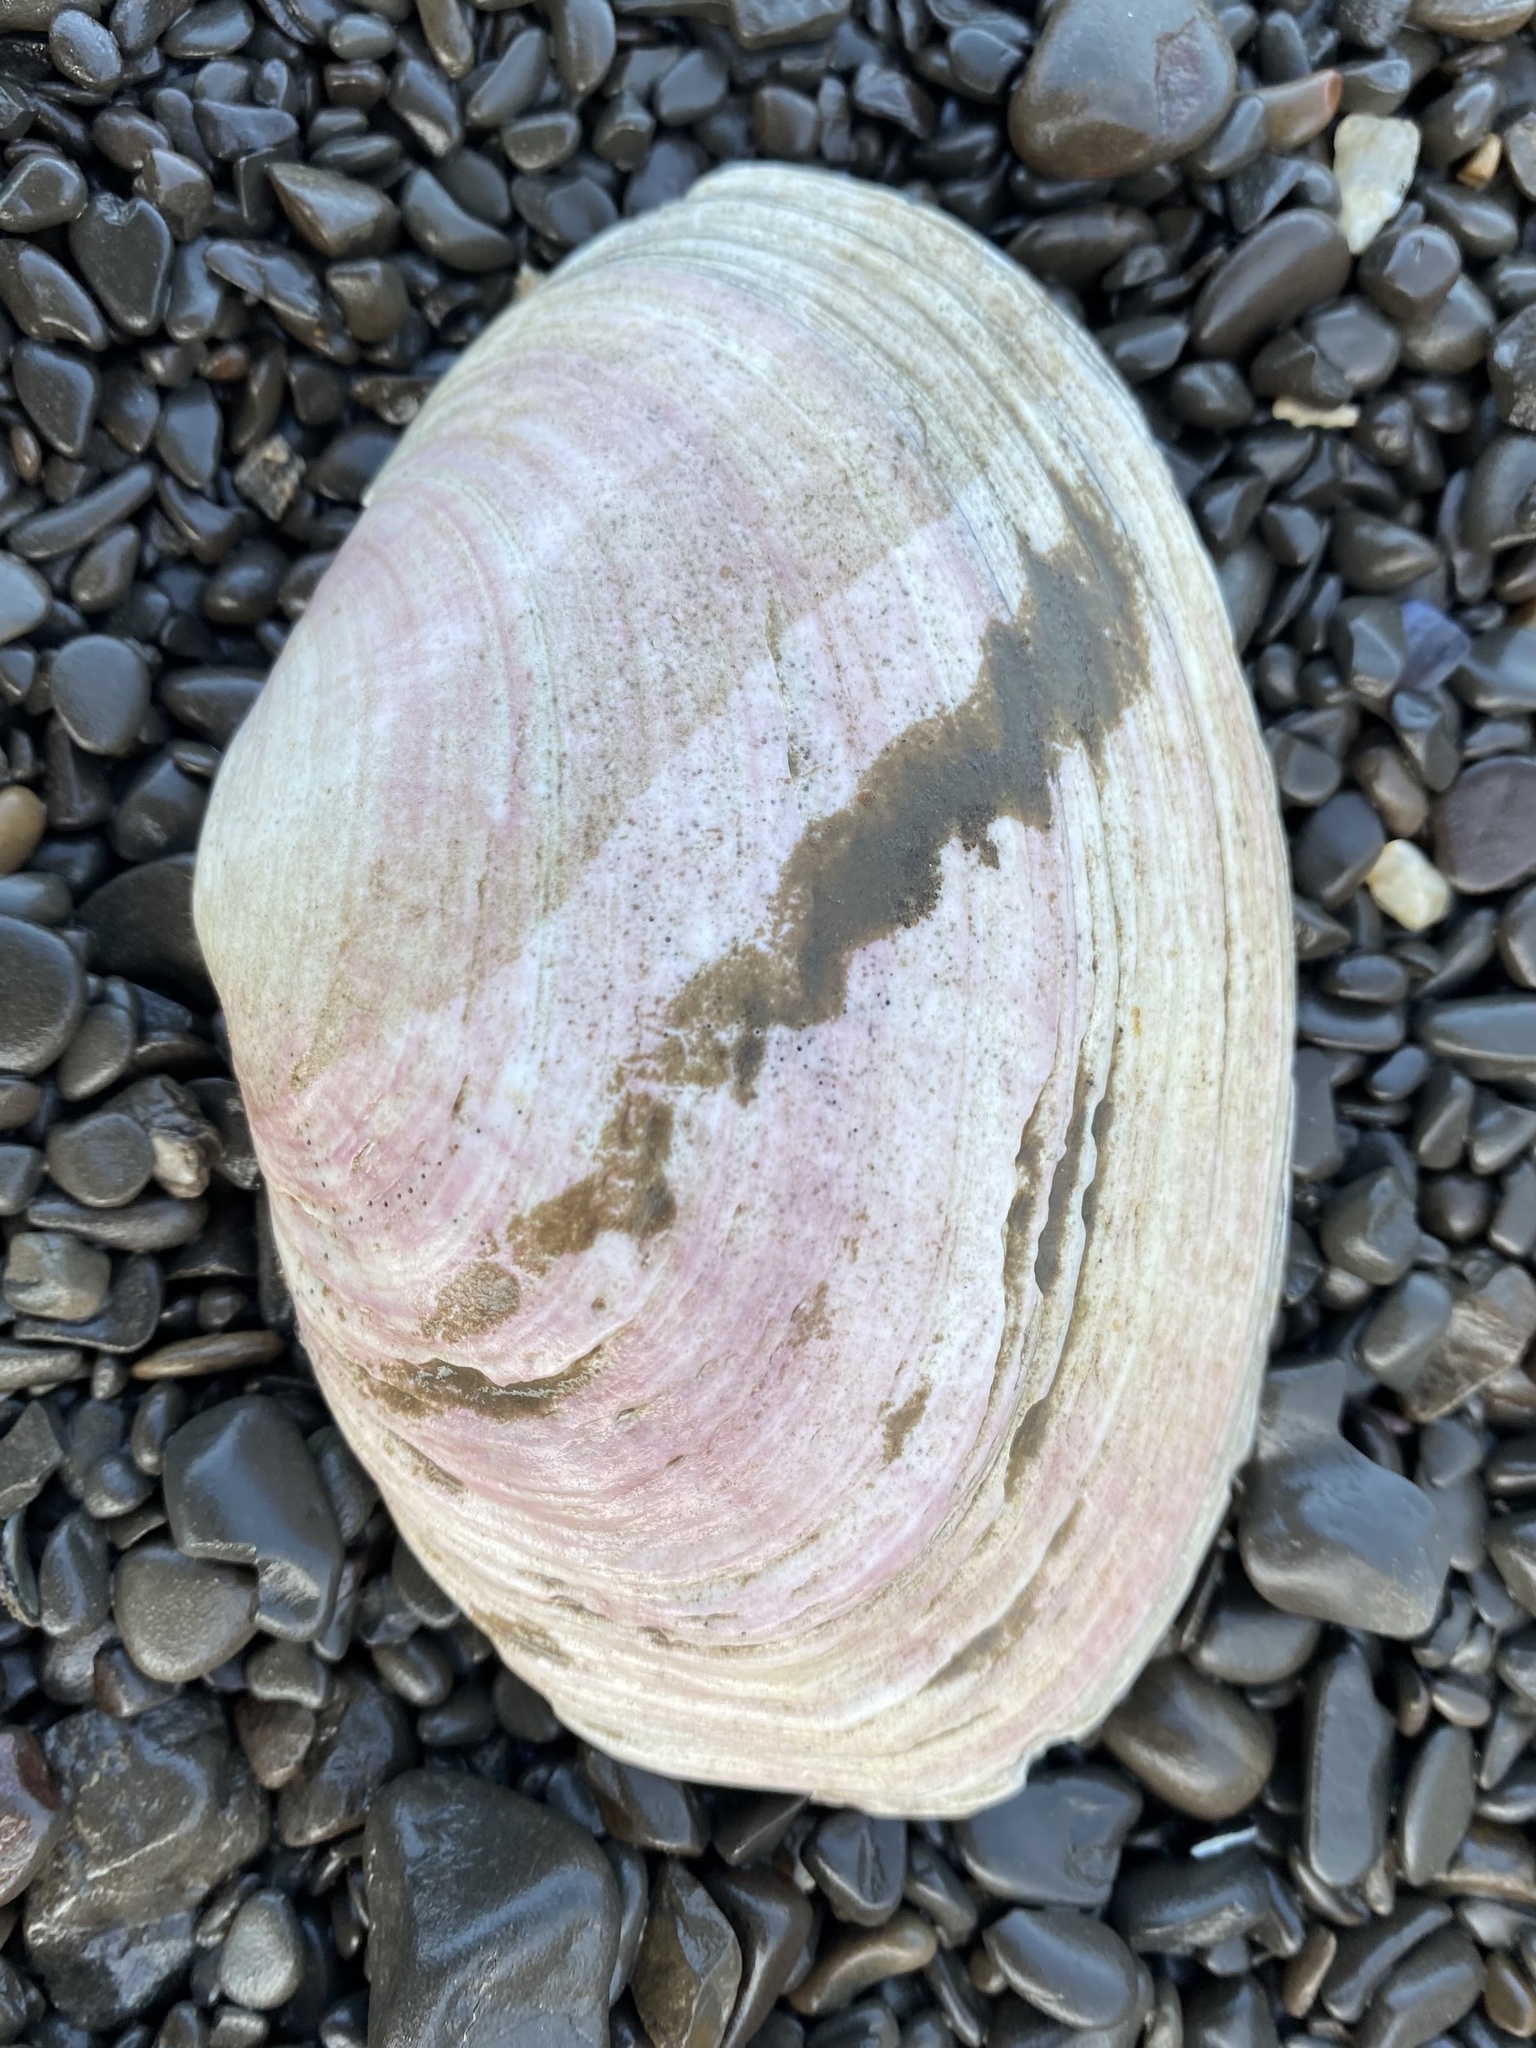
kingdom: Animalia
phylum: Mollusca
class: Bivalvia
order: Cardiida
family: Psammobiidae
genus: Gari
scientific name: Gari californica
